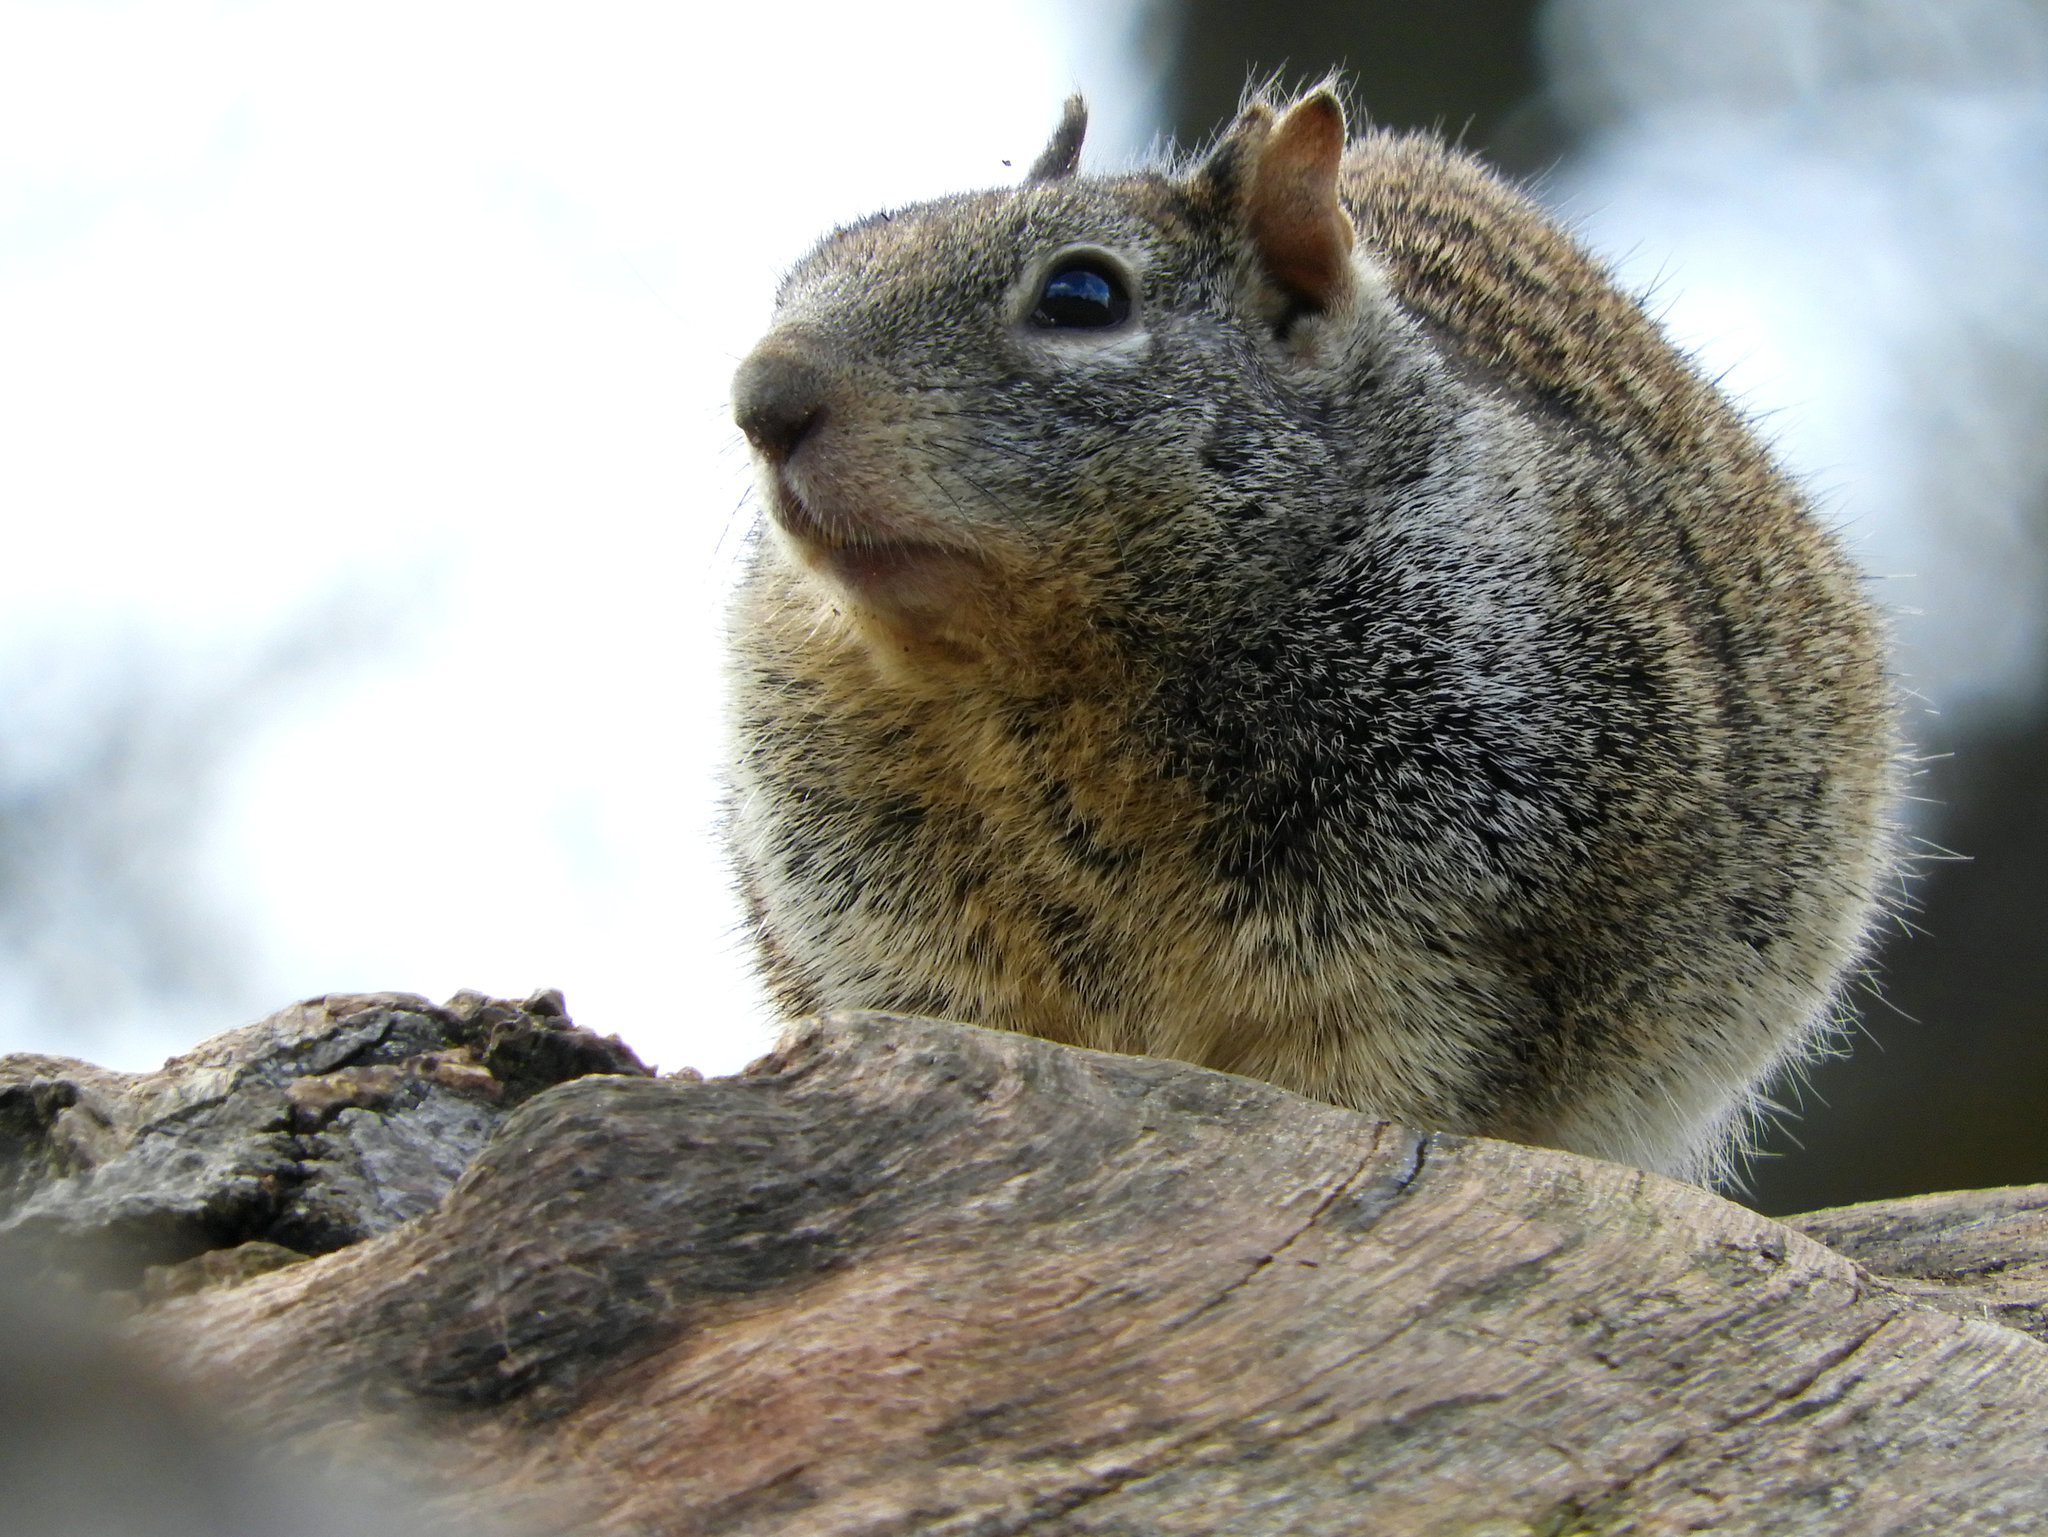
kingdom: Animalia
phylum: Chordata
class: Mammalia
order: Rodentia
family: Sciuridae
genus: Otospermophilus
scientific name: Otospermophilus beecheyi
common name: California ground squirrel
